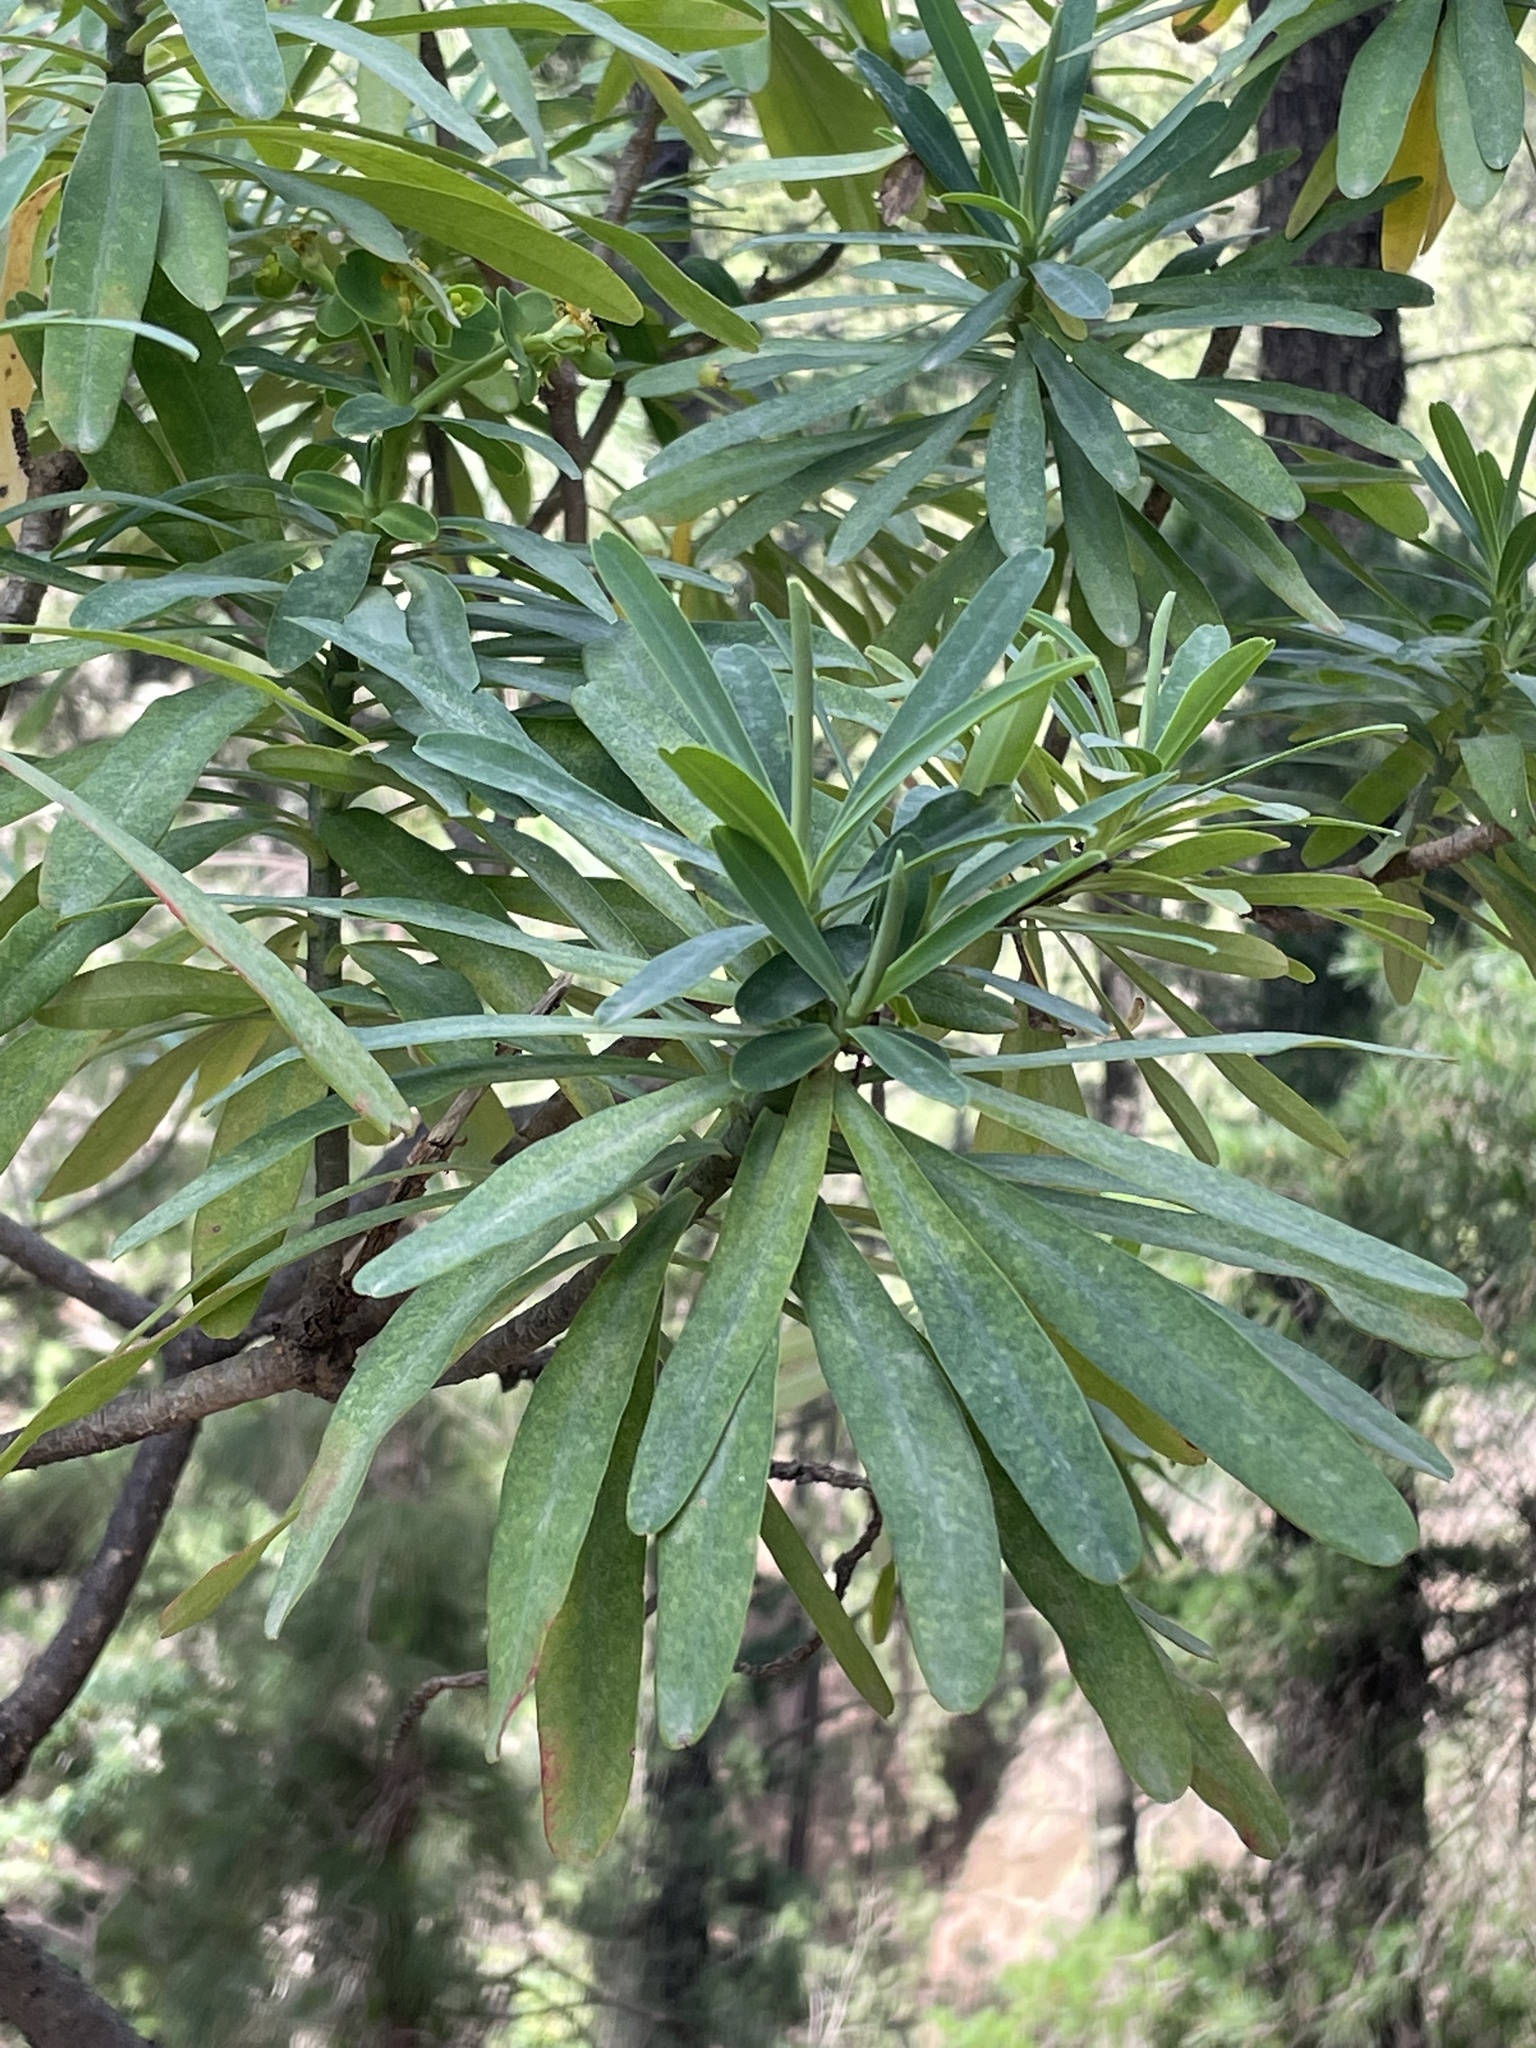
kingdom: Plantae
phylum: Tracheophyta
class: Magnoliopsida
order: Malpighiales
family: Euphorbiaceae
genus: Euphorbia
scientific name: Euphorbia tuckeyana
